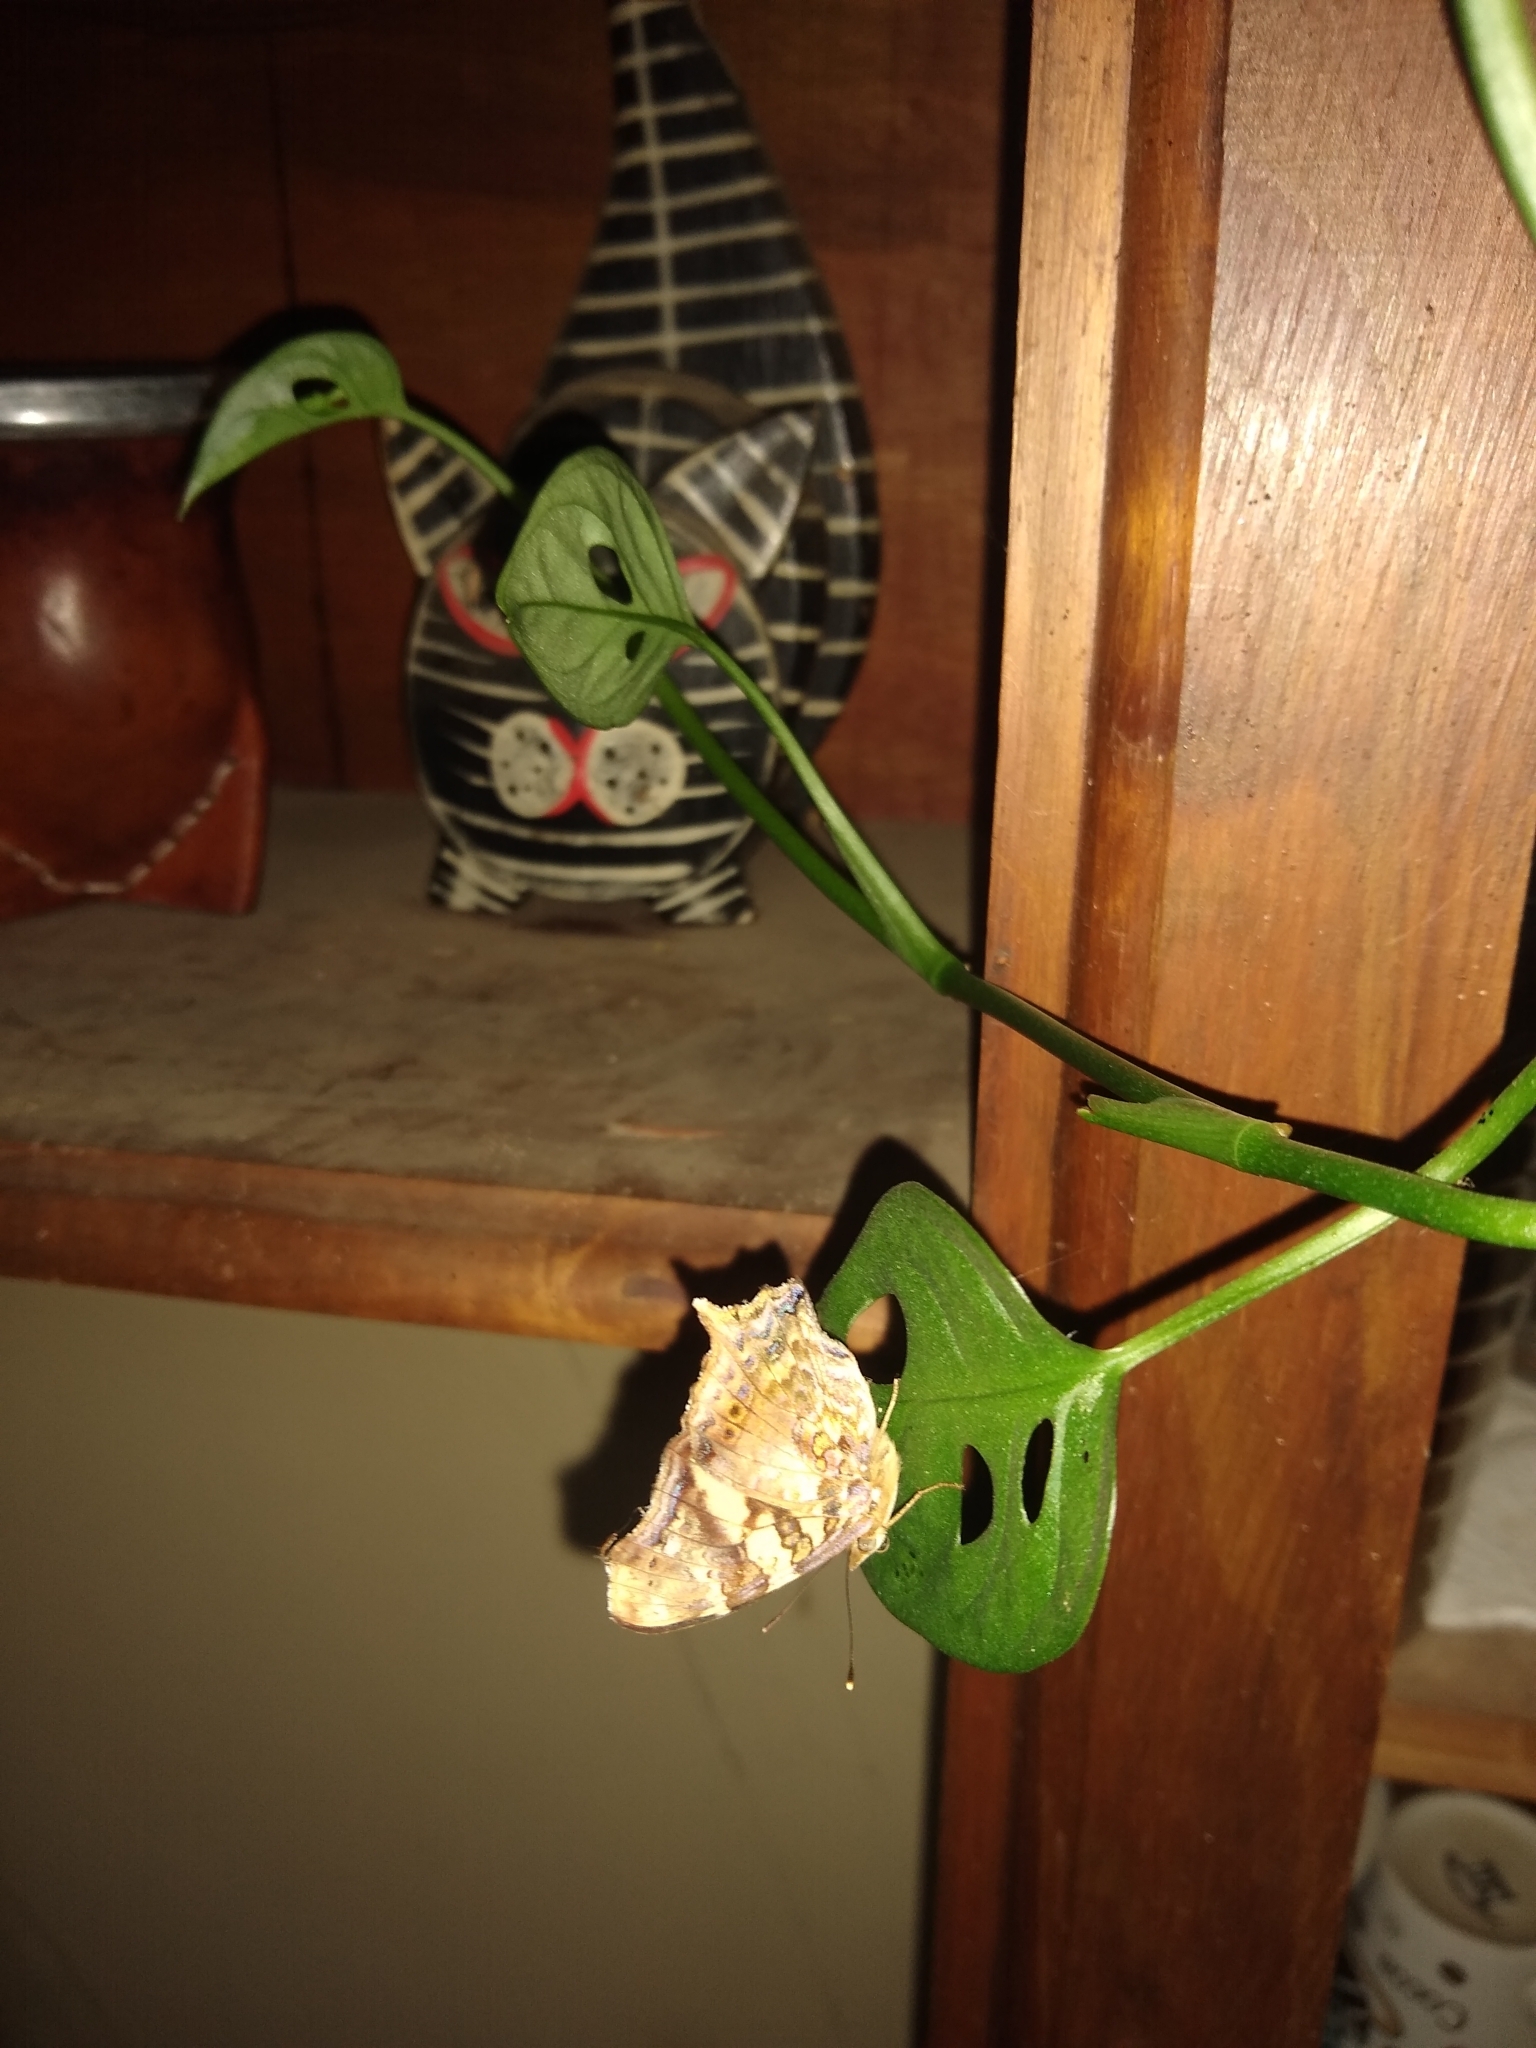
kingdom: Animalia
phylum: Arthropoda
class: Insecta
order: Lepidoptera
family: Nymphalidae
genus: Hypanartia
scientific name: Hypanartia bella
